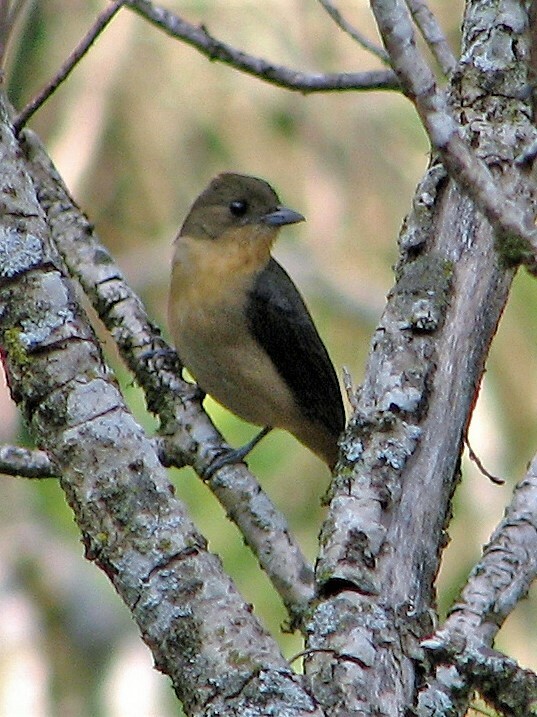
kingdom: Animalia
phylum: Chordata
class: Aves
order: Passeriformes
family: Thraupidae
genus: Trichothraupis
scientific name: Trichothraupis melanops
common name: Black-goggled tanager
